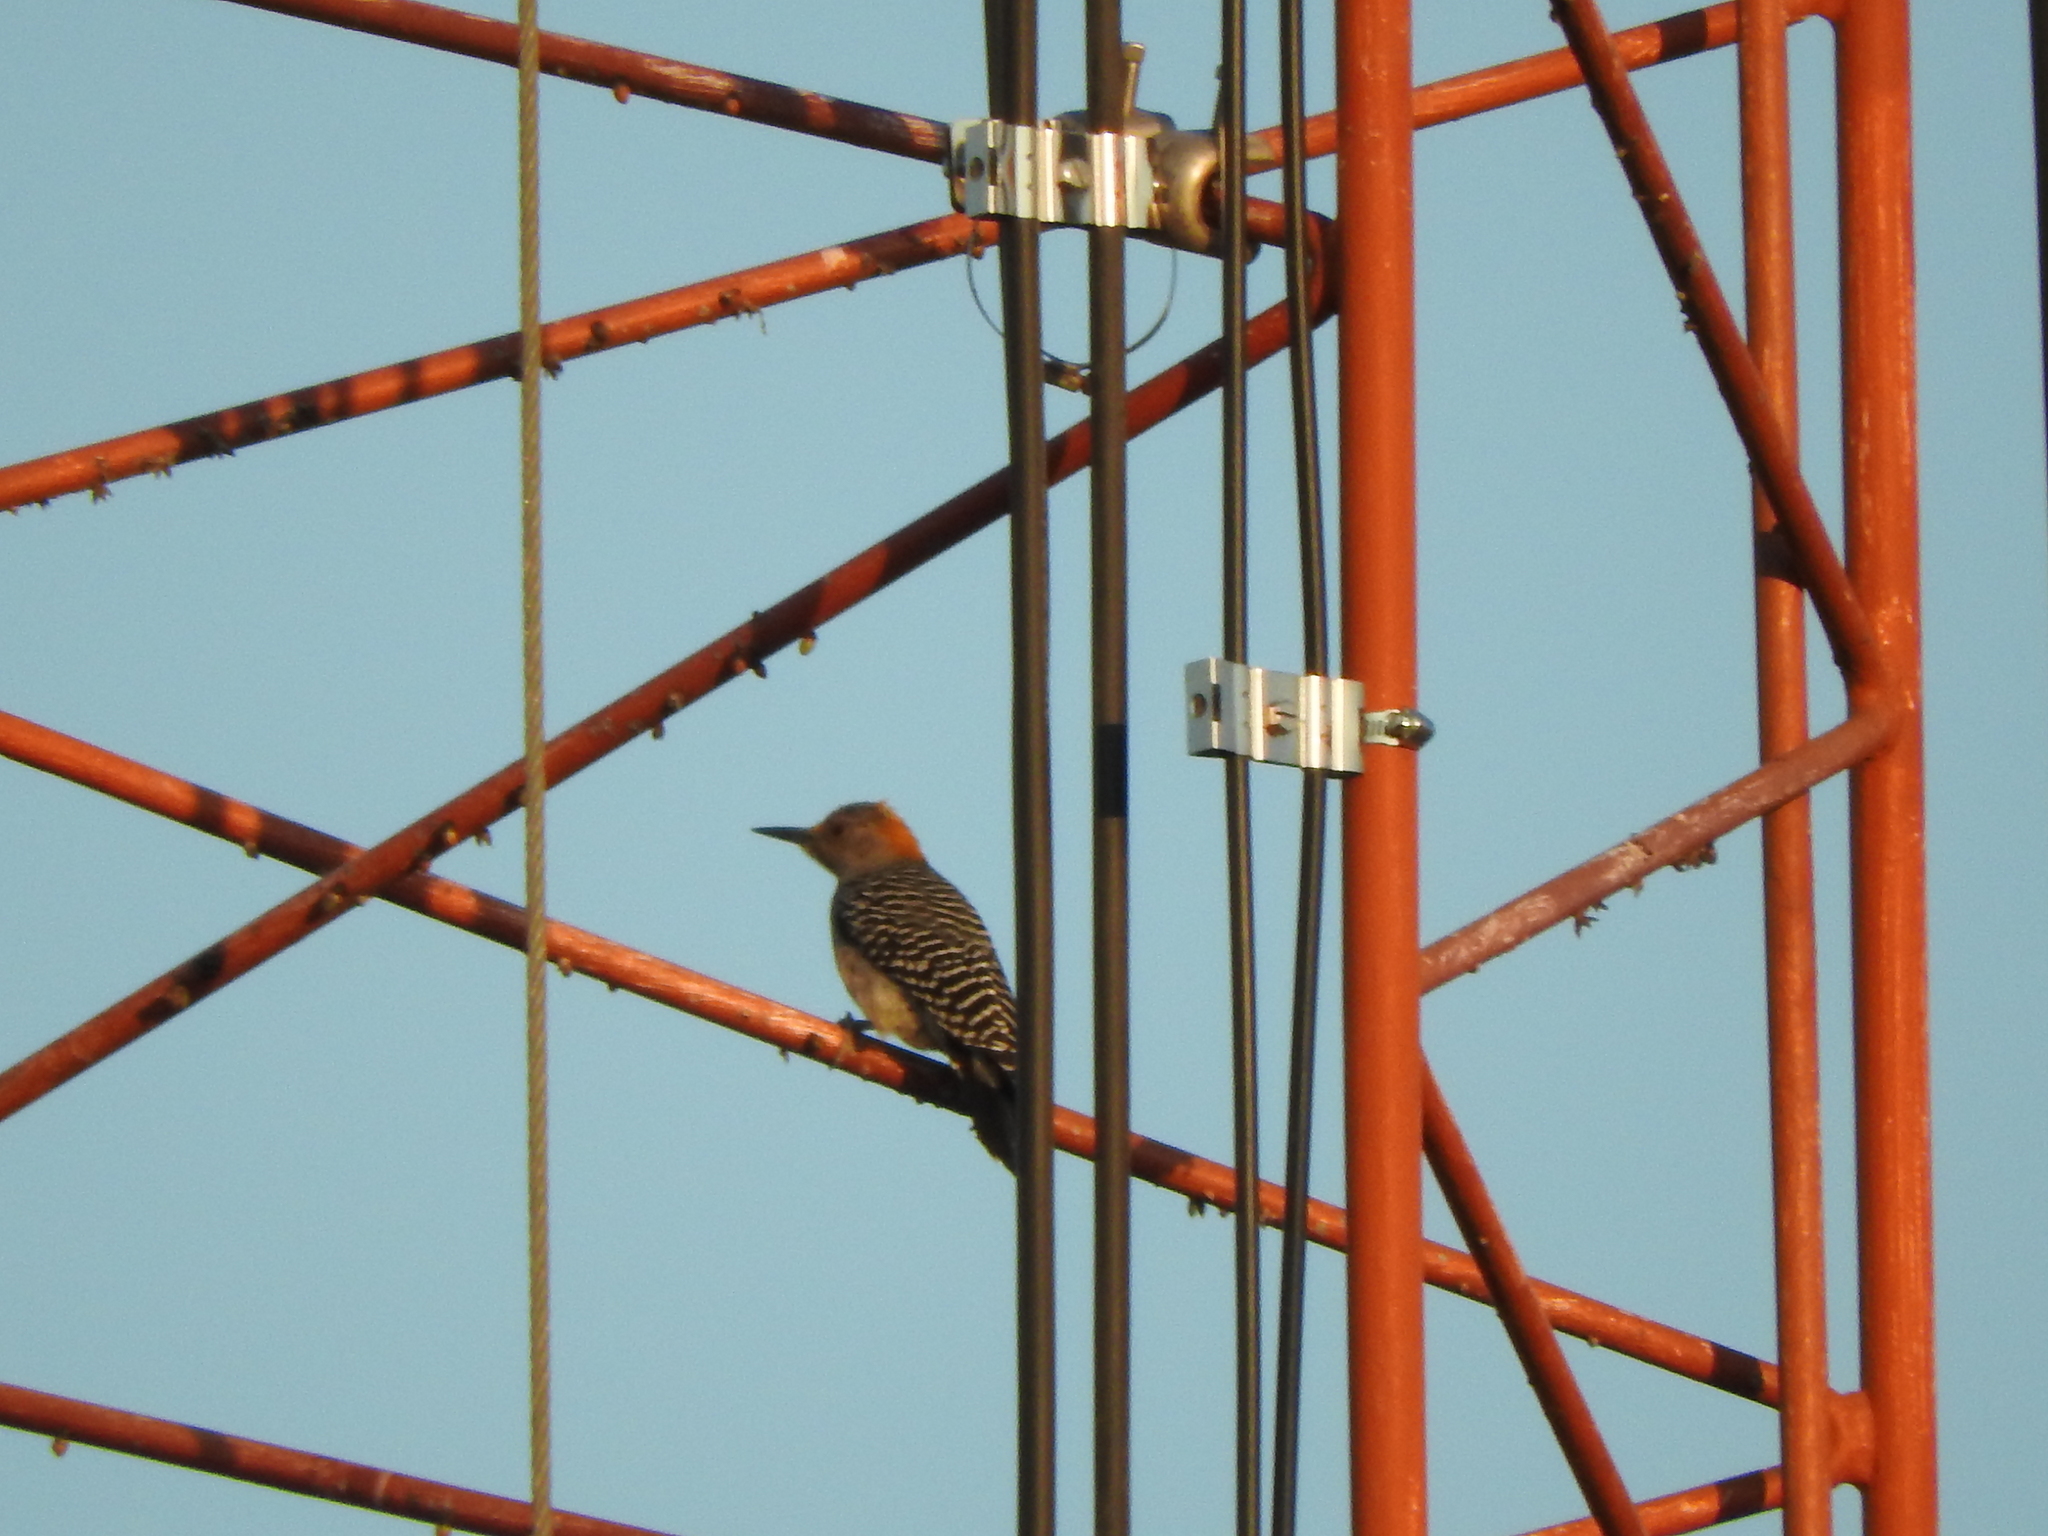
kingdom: Animalia
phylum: Chordata
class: Aves
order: Piciformes
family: Picidae
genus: Melanerpes
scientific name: Melanerpes aurifrons
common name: Golden-fronted woodpecker
